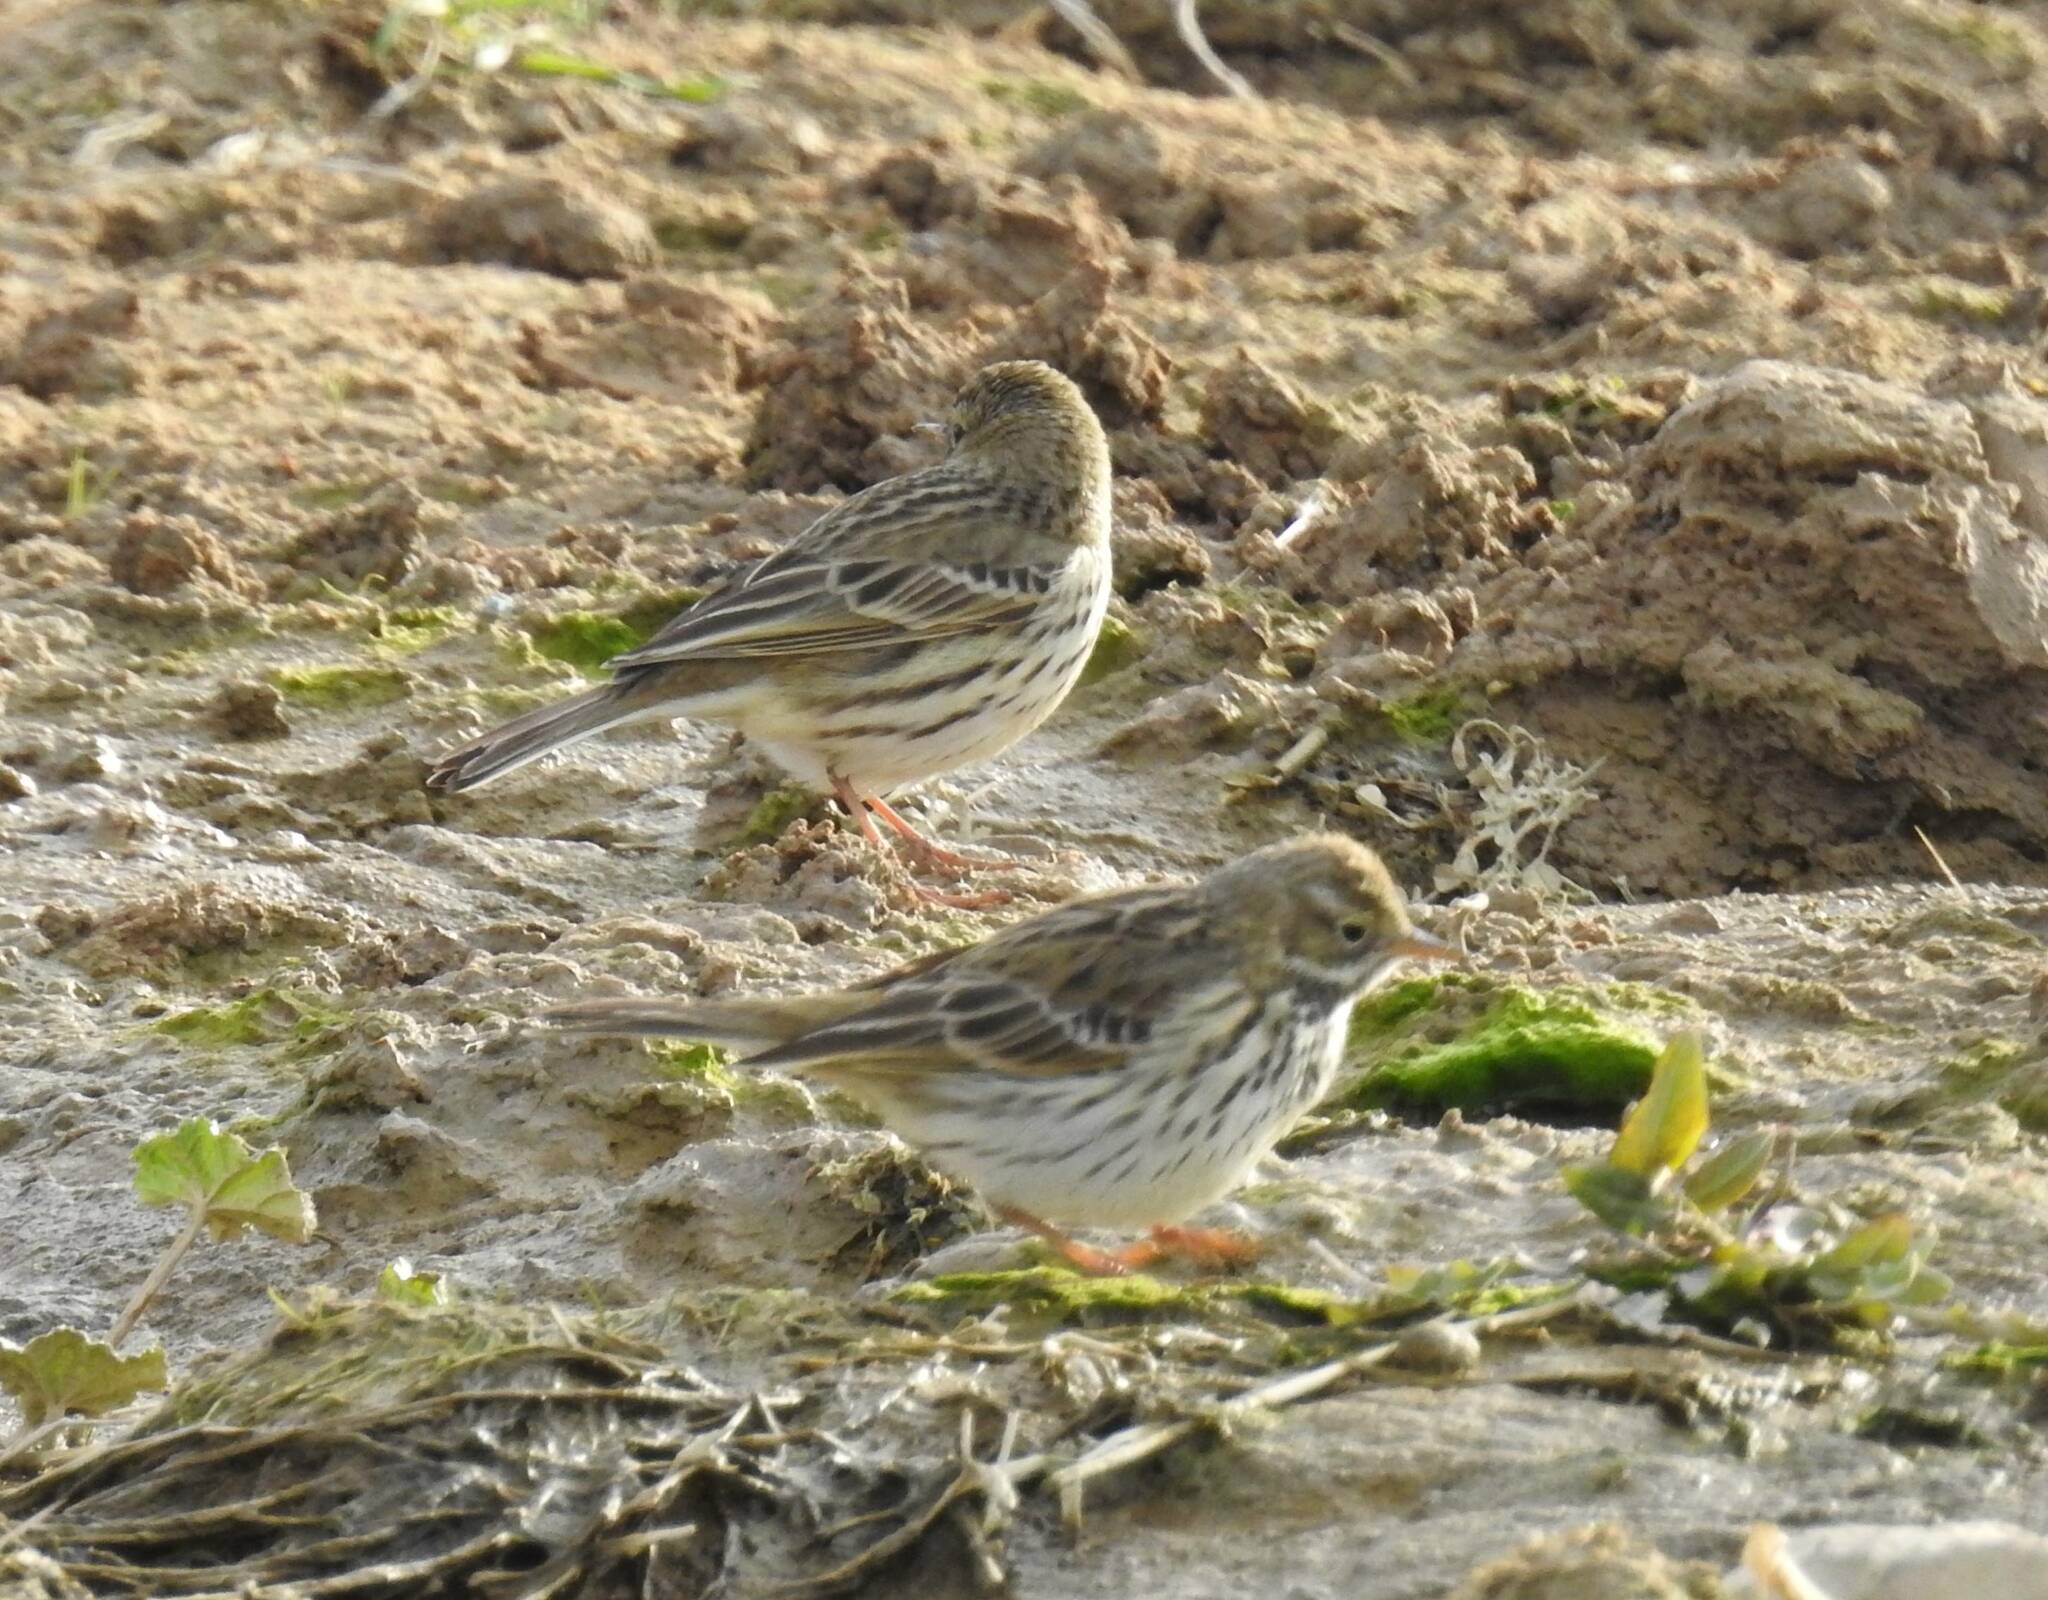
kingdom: Animalia
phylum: Chordata
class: Aves
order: Passeriformes
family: Motacillidae
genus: Anthus
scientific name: Anthus pratensis
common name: Meadow pipit
